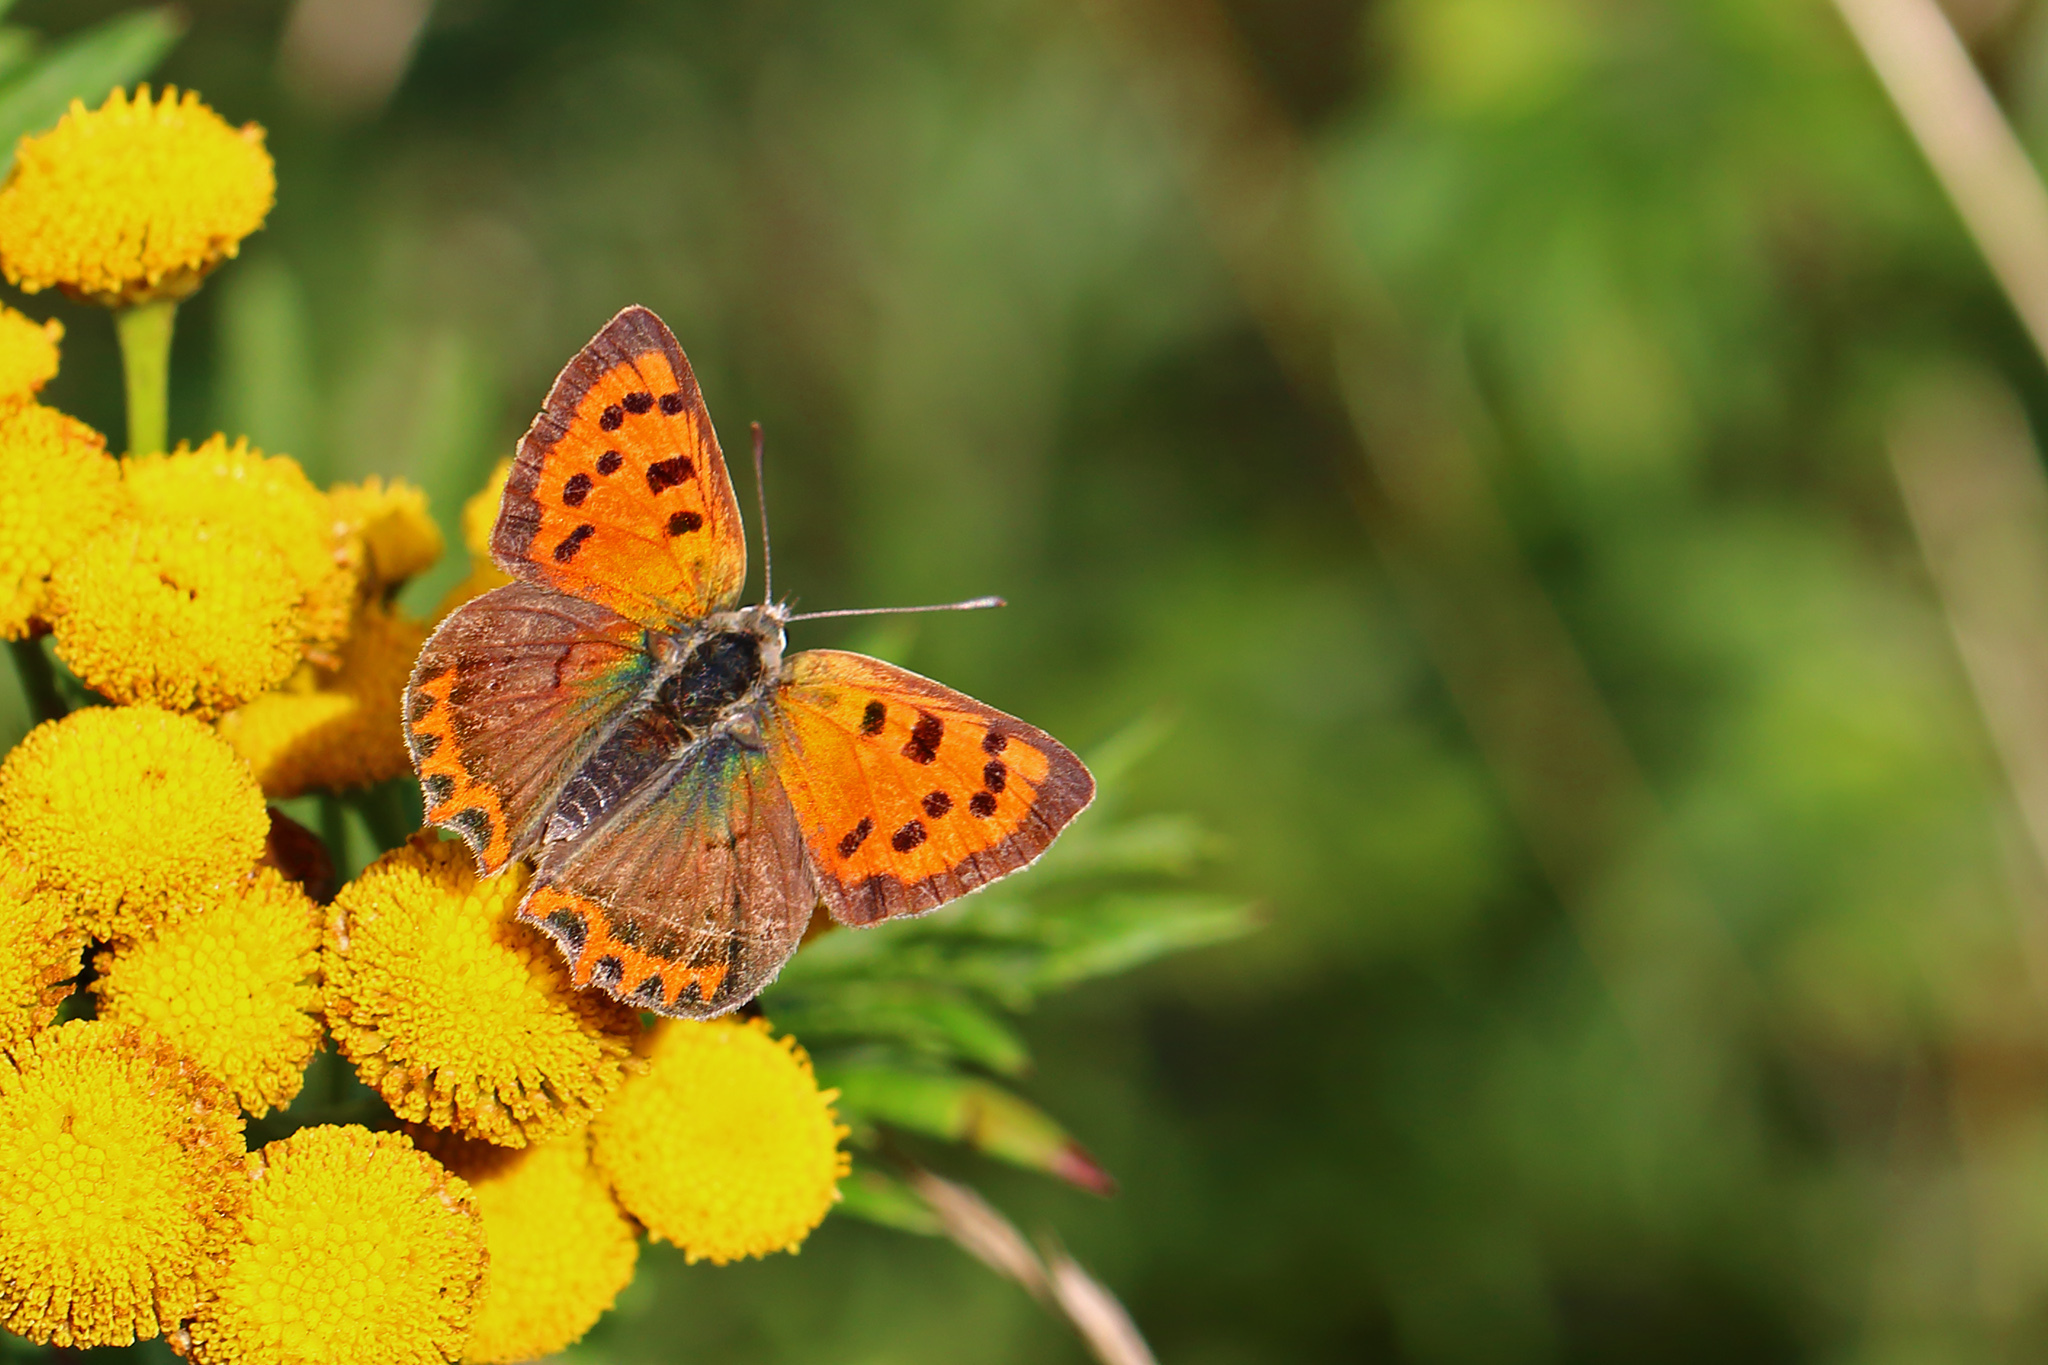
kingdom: Animalia
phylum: Arthropoda
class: Insecta
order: Lepidoptera
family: Lycaenidae
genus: Lycaena
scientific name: Lycaena phlaeas
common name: Small copper
